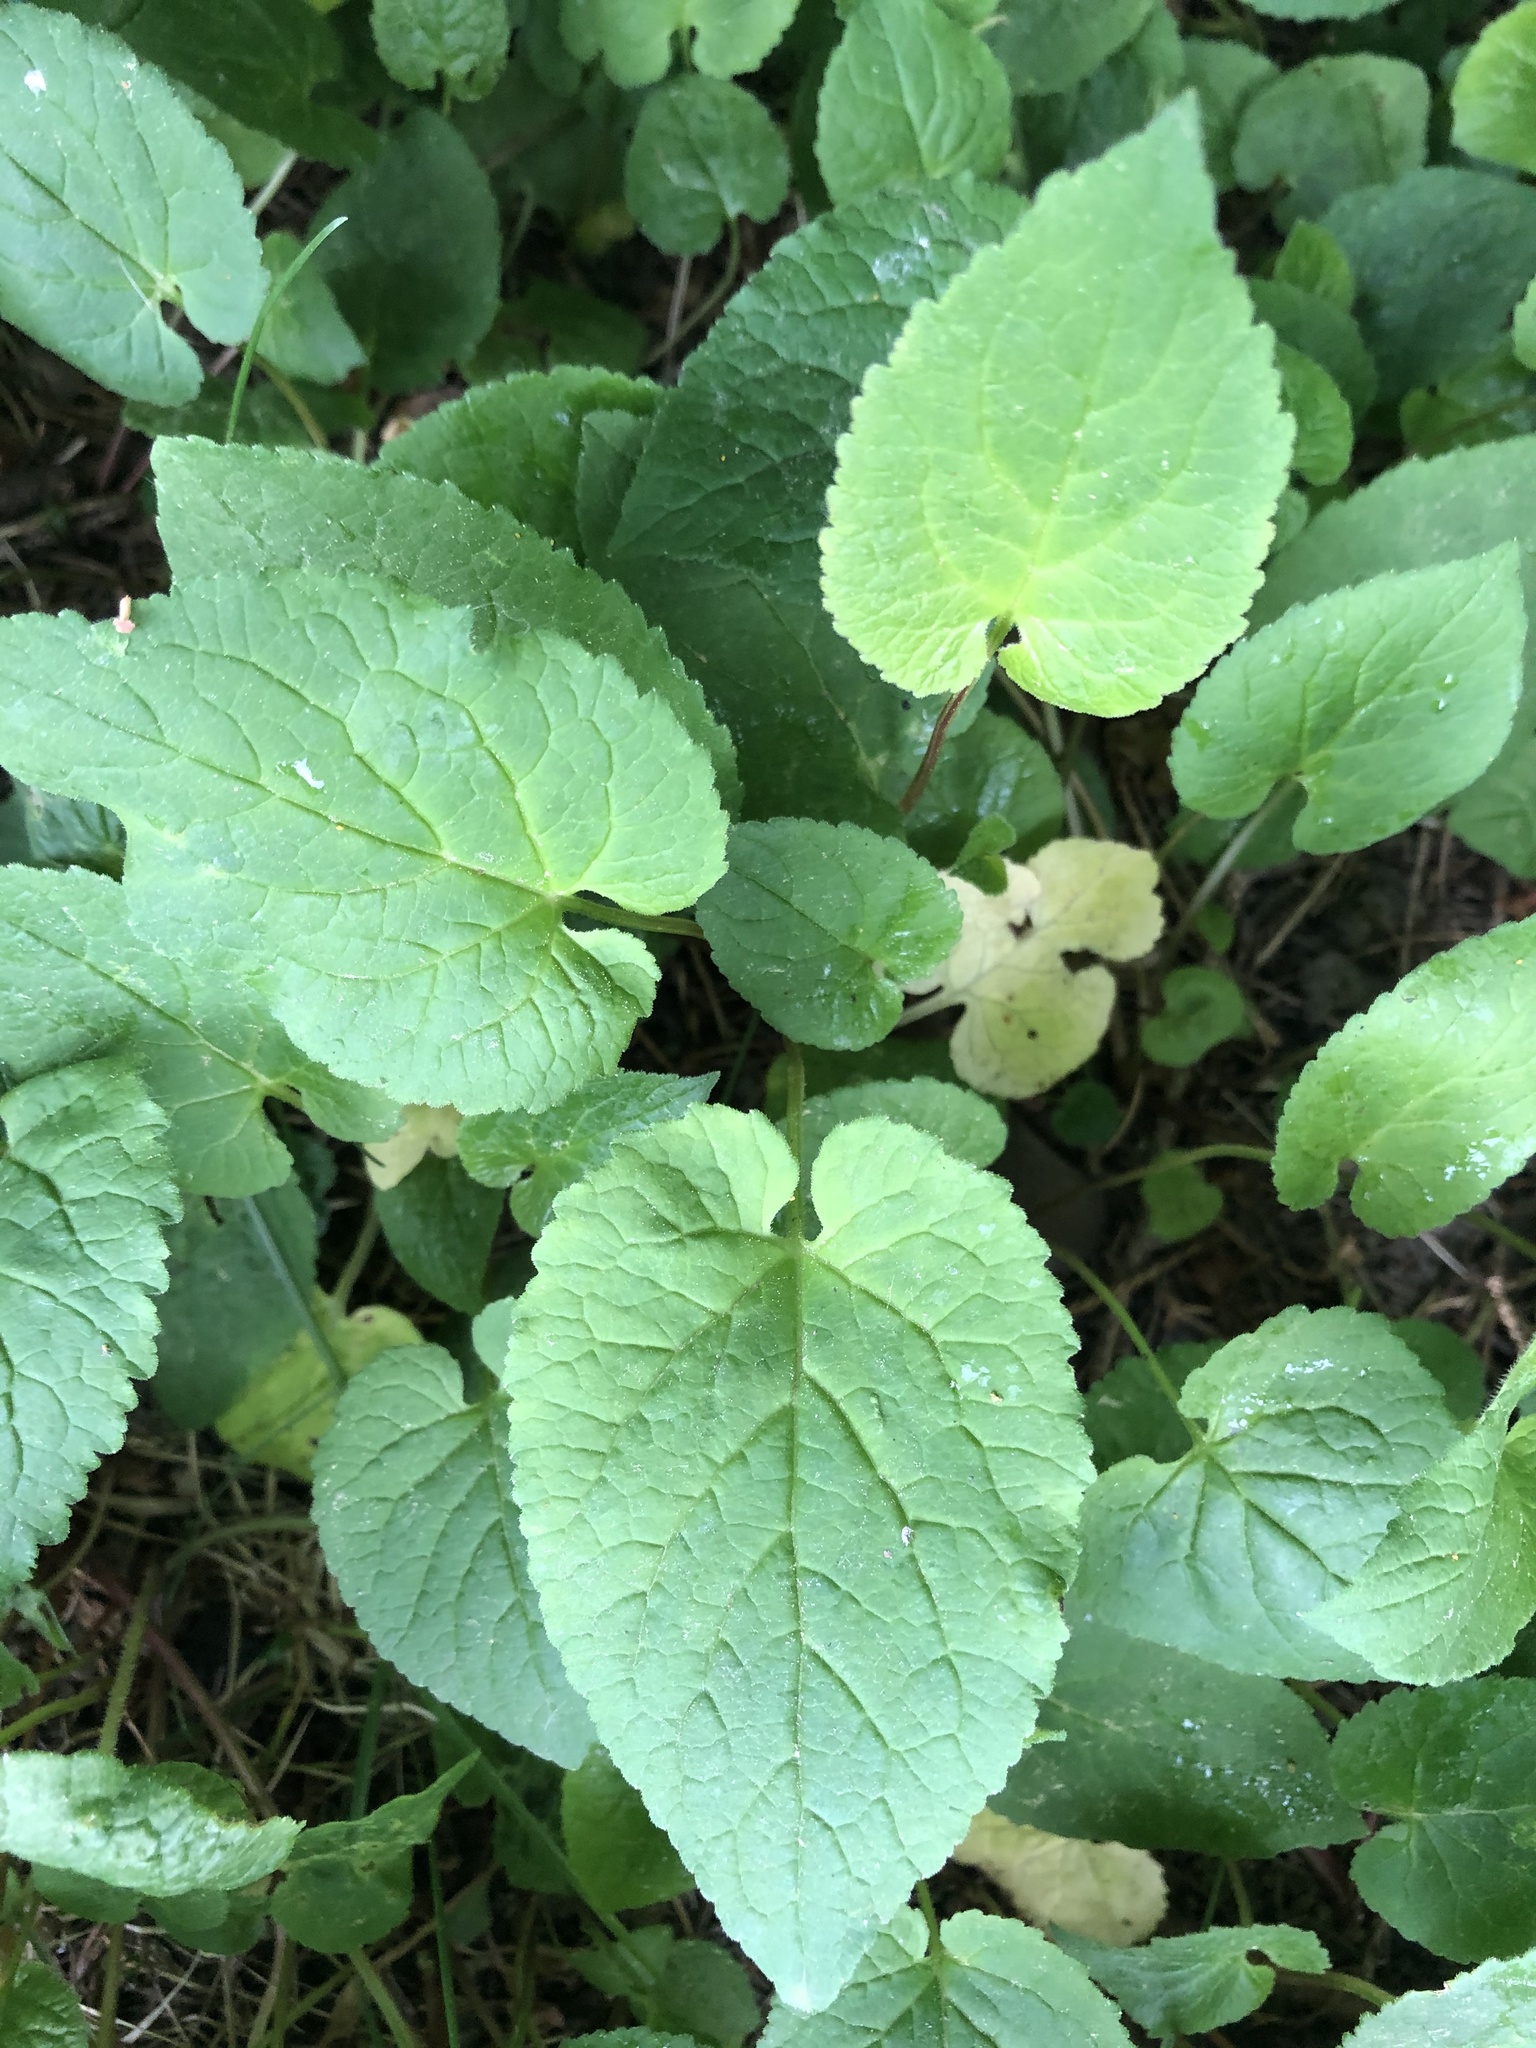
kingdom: Plantae
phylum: Tracheophyta
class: Magnoliopsida
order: Asterales
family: Campanulaceae
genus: Campanula
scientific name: Campanula rapunculoides
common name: Creeping bellflower
